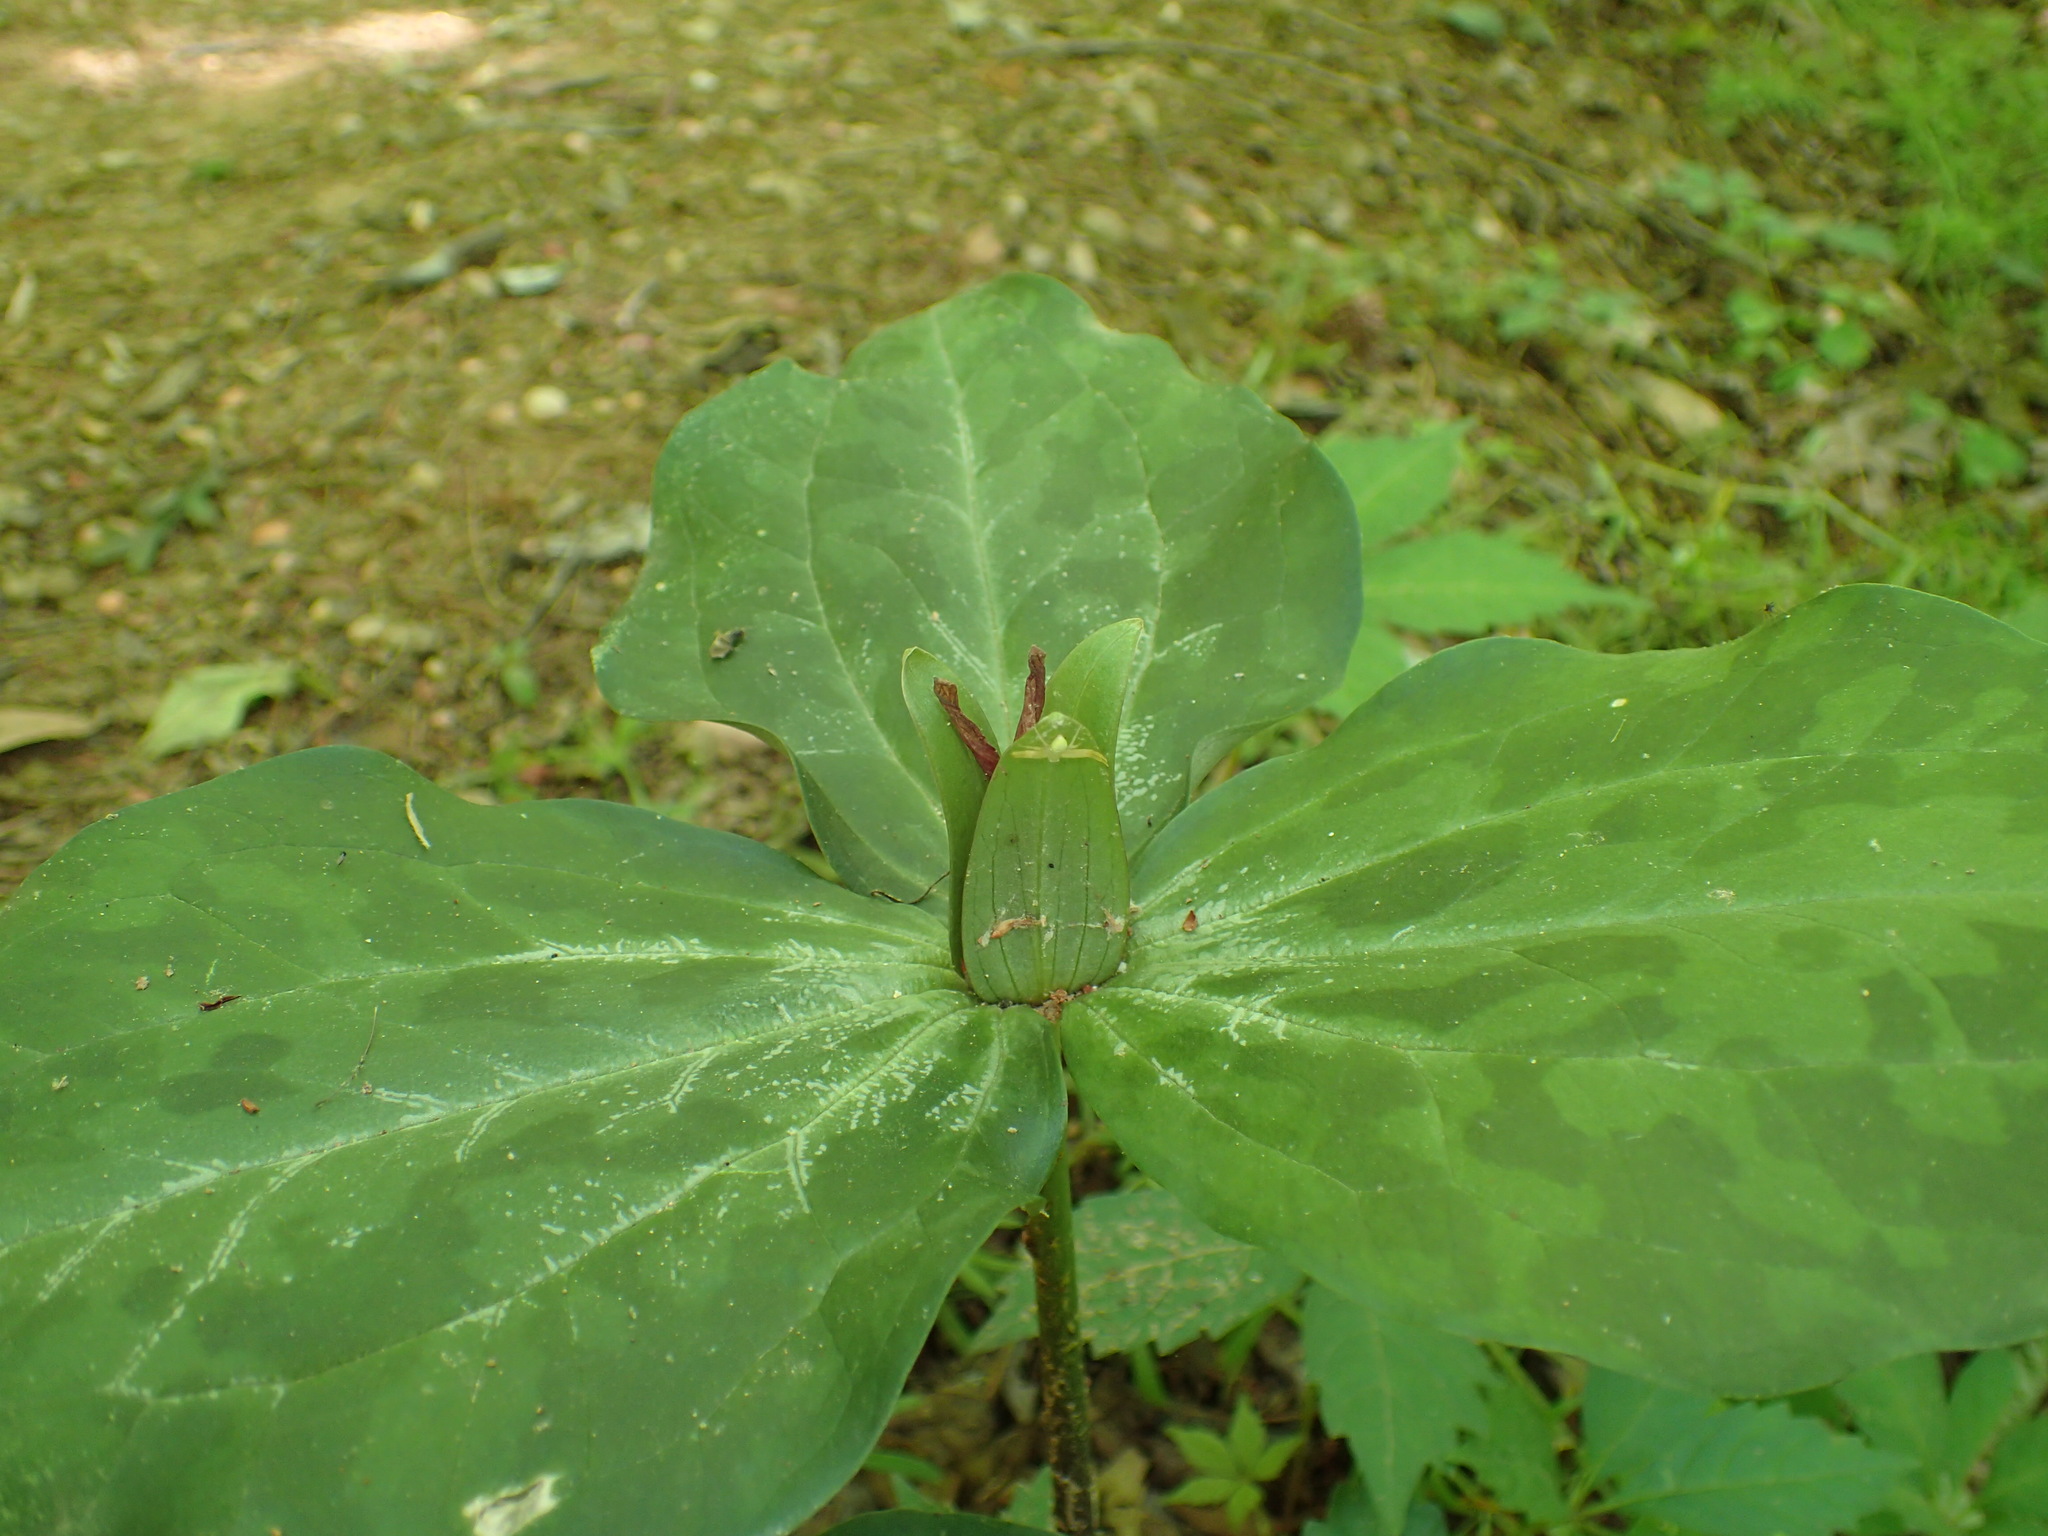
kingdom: Animalia
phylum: Arthropoda
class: Arachnida
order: Araneae
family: Thomisidae
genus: Misumessus
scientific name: Misumessus oblongus
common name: American green crab spider
